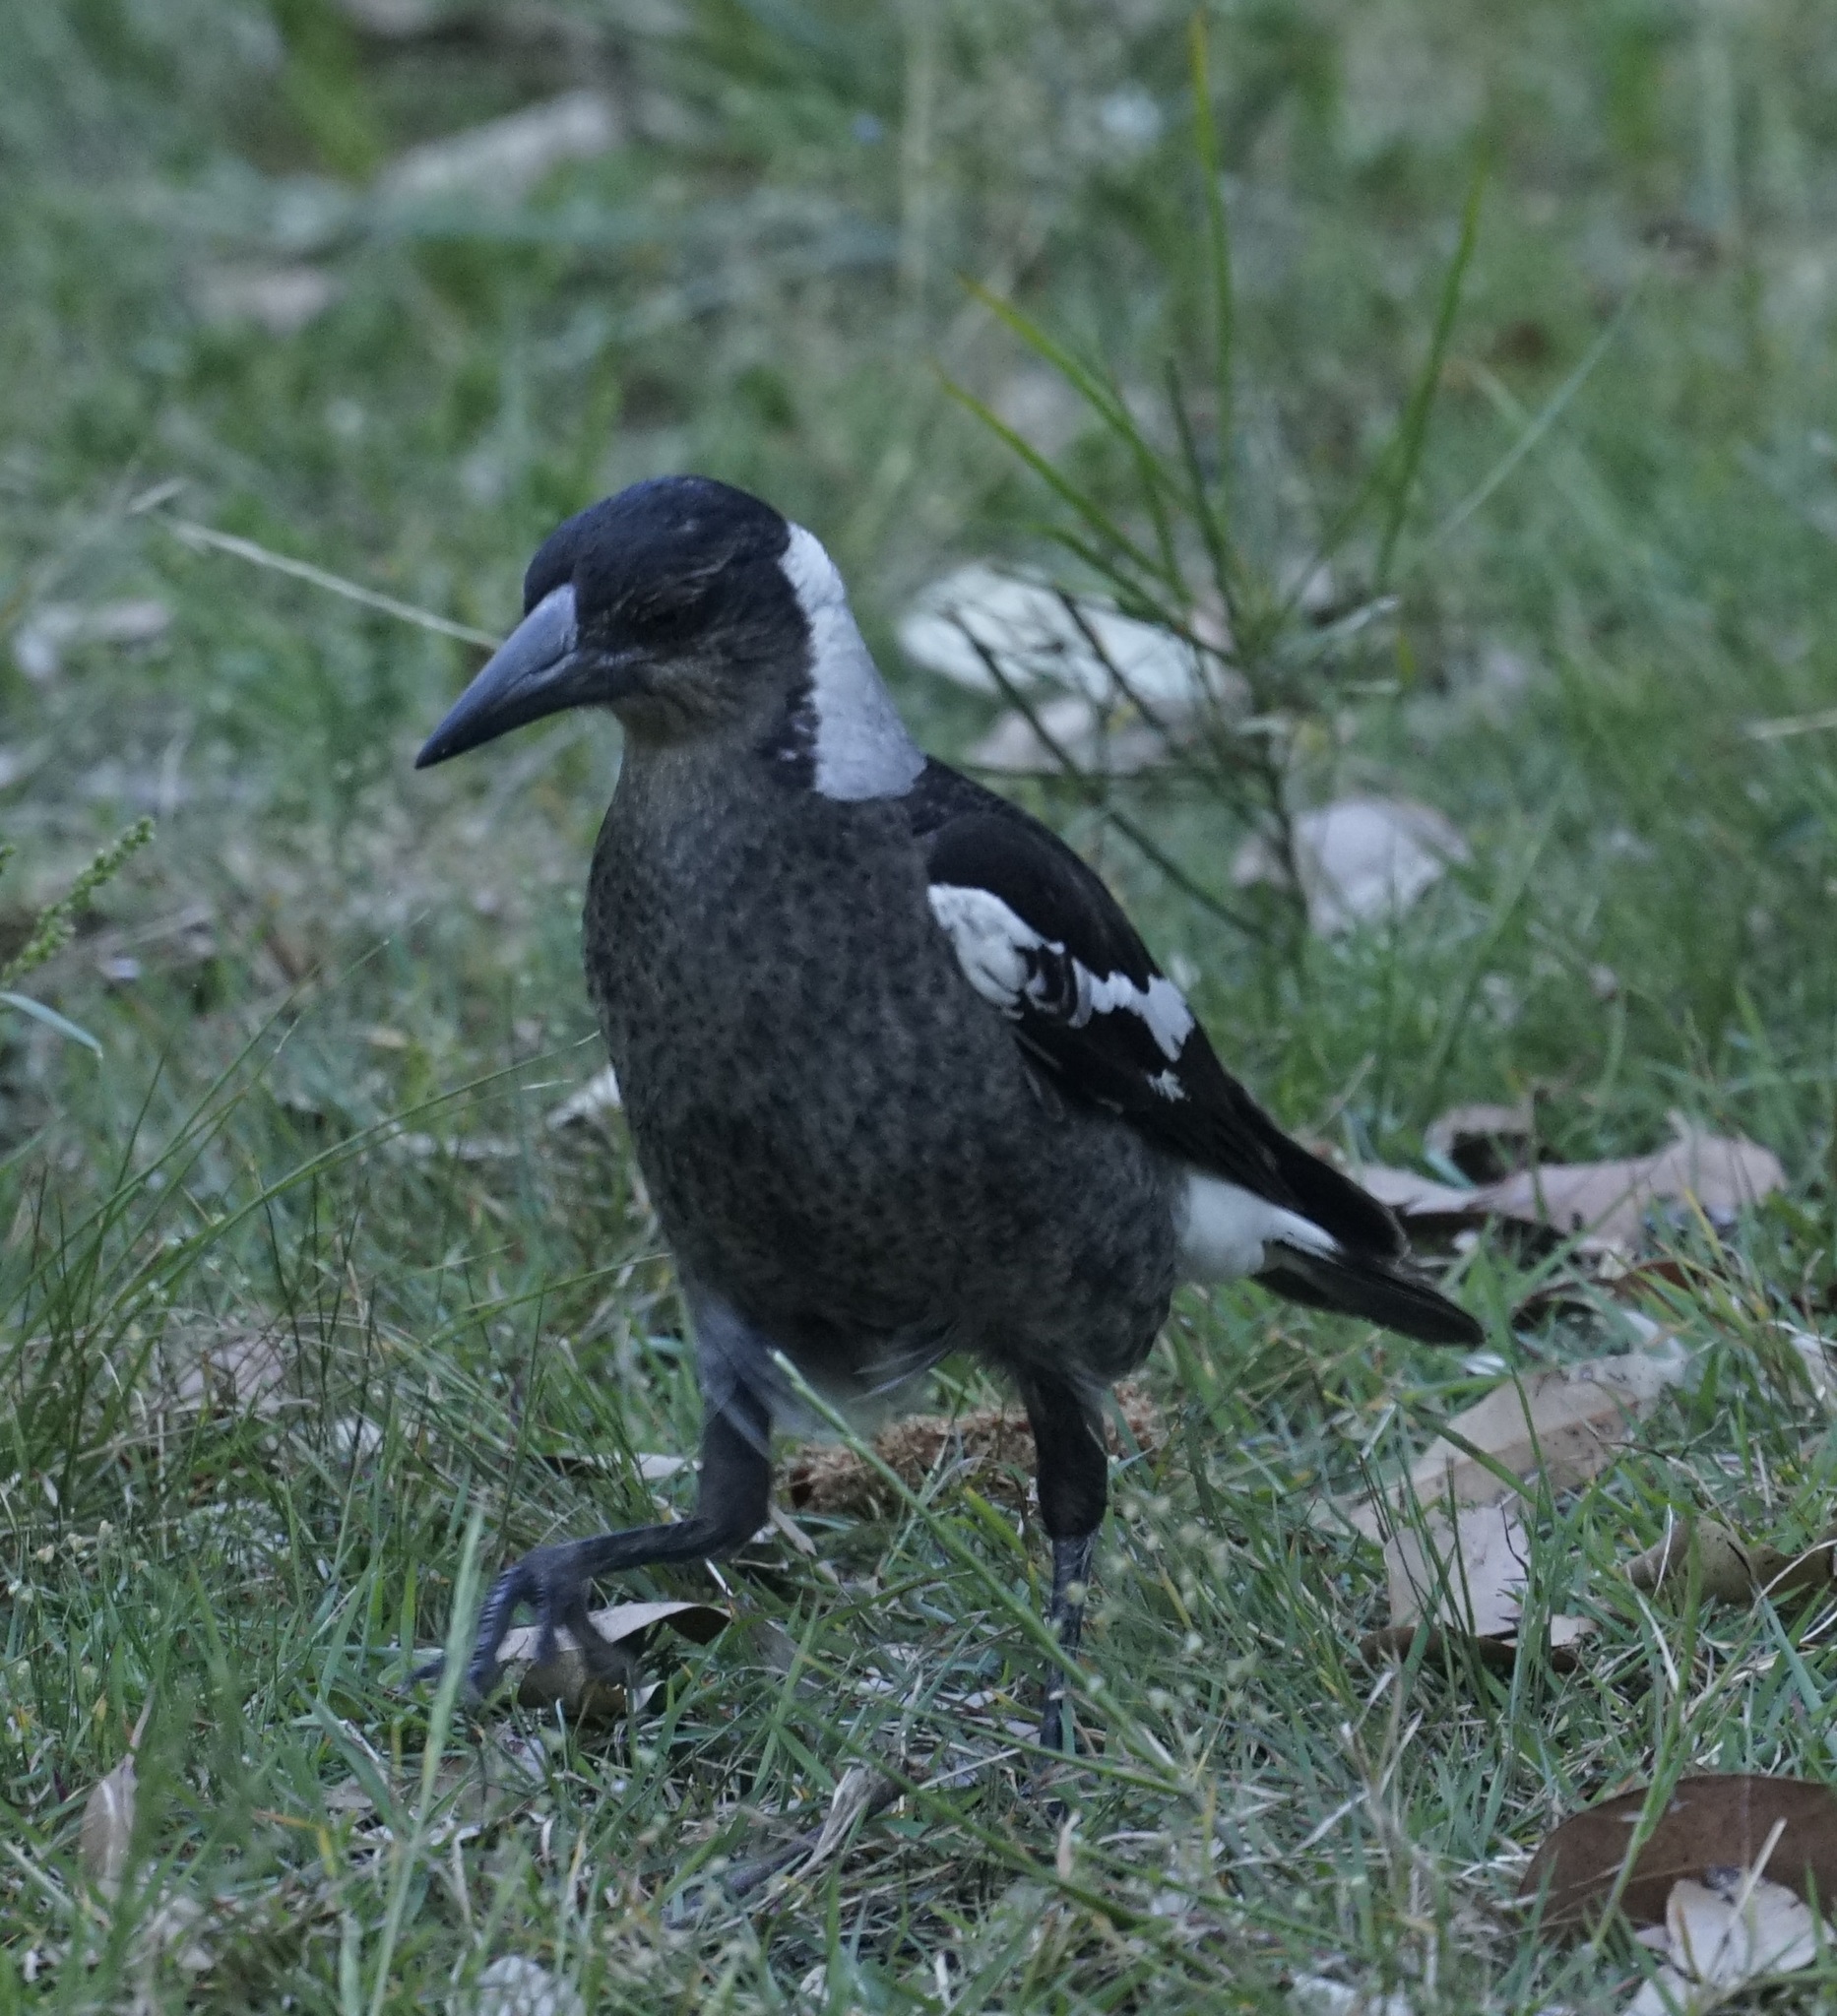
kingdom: Animalia
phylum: Chordata
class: Aves
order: Passeriformes
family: Cracticidae
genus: Gymnorhina
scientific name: Gymnorhina tibicen
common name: Australian magpie
